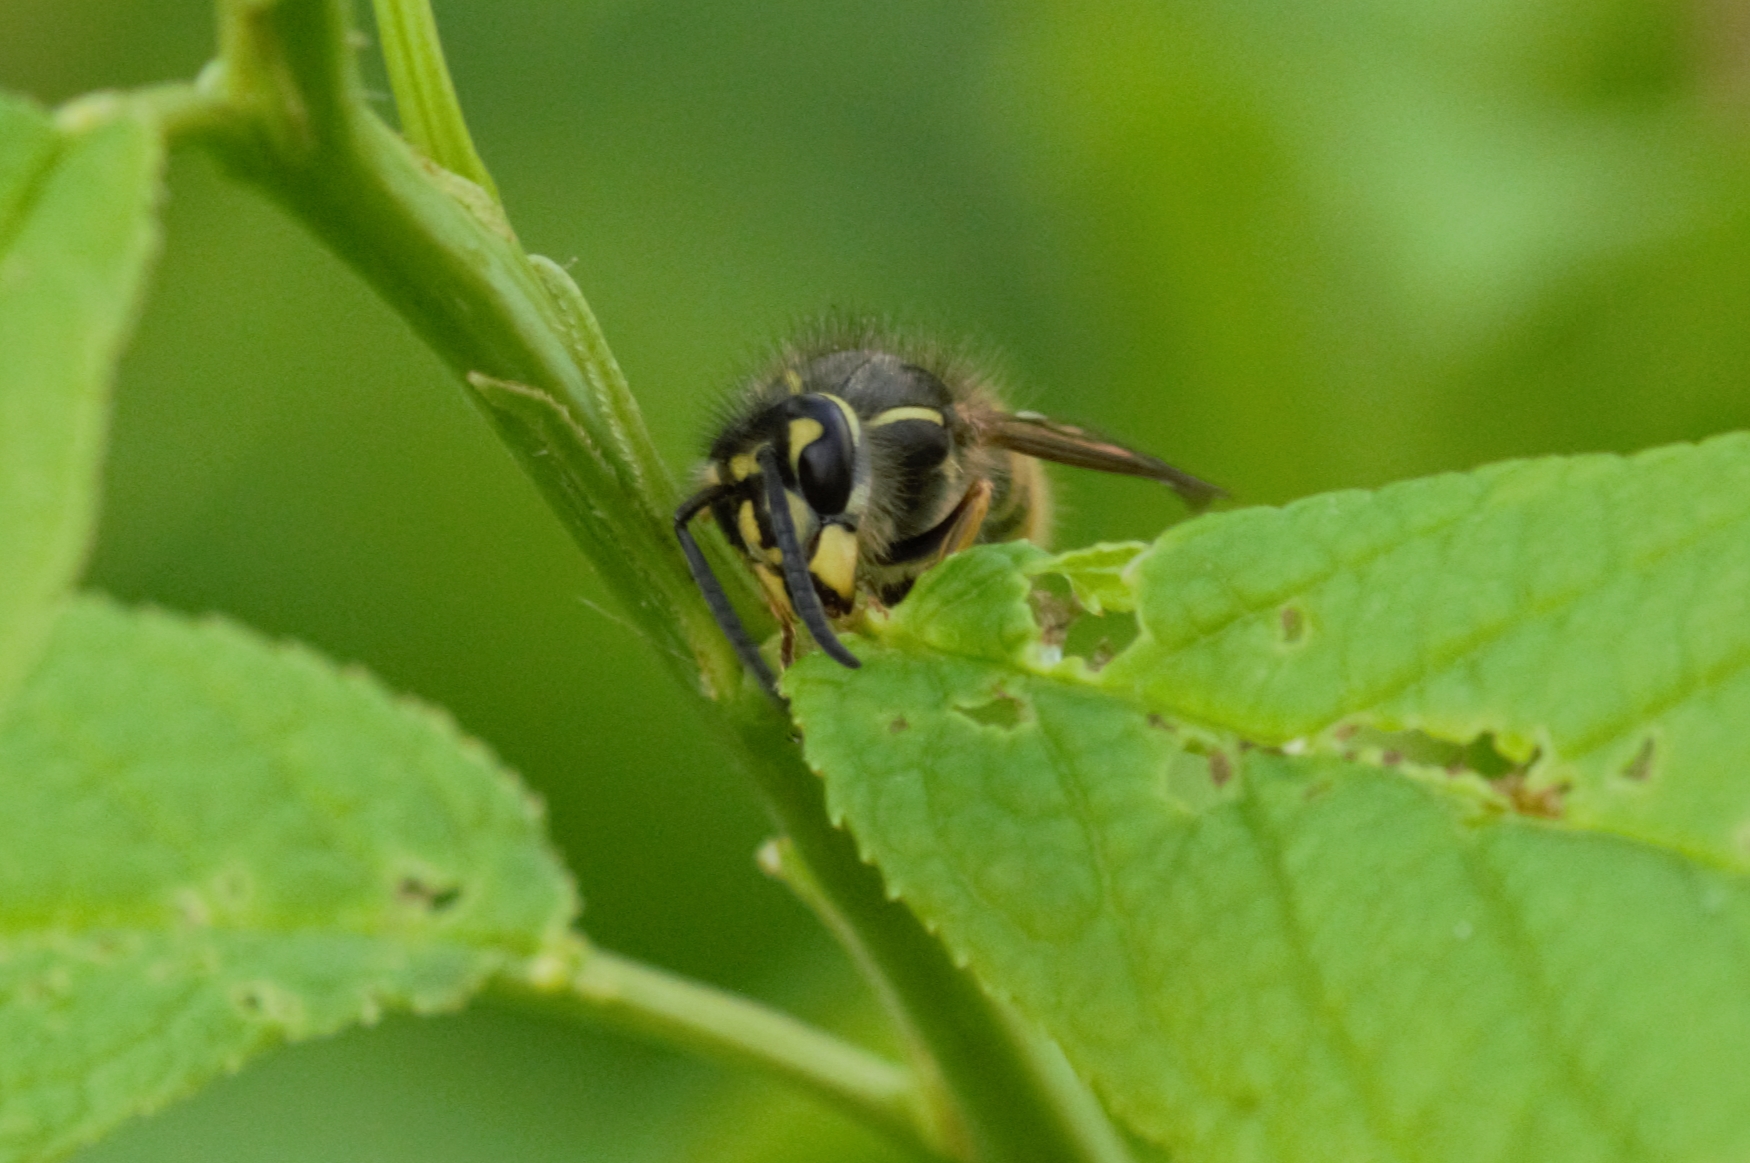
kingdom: Animalia
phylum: Arthropoda
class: Insecta
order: Hymenoptera
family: Vespidae
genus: Vespula
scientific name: Vespula vulgaris
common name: Common wasp
